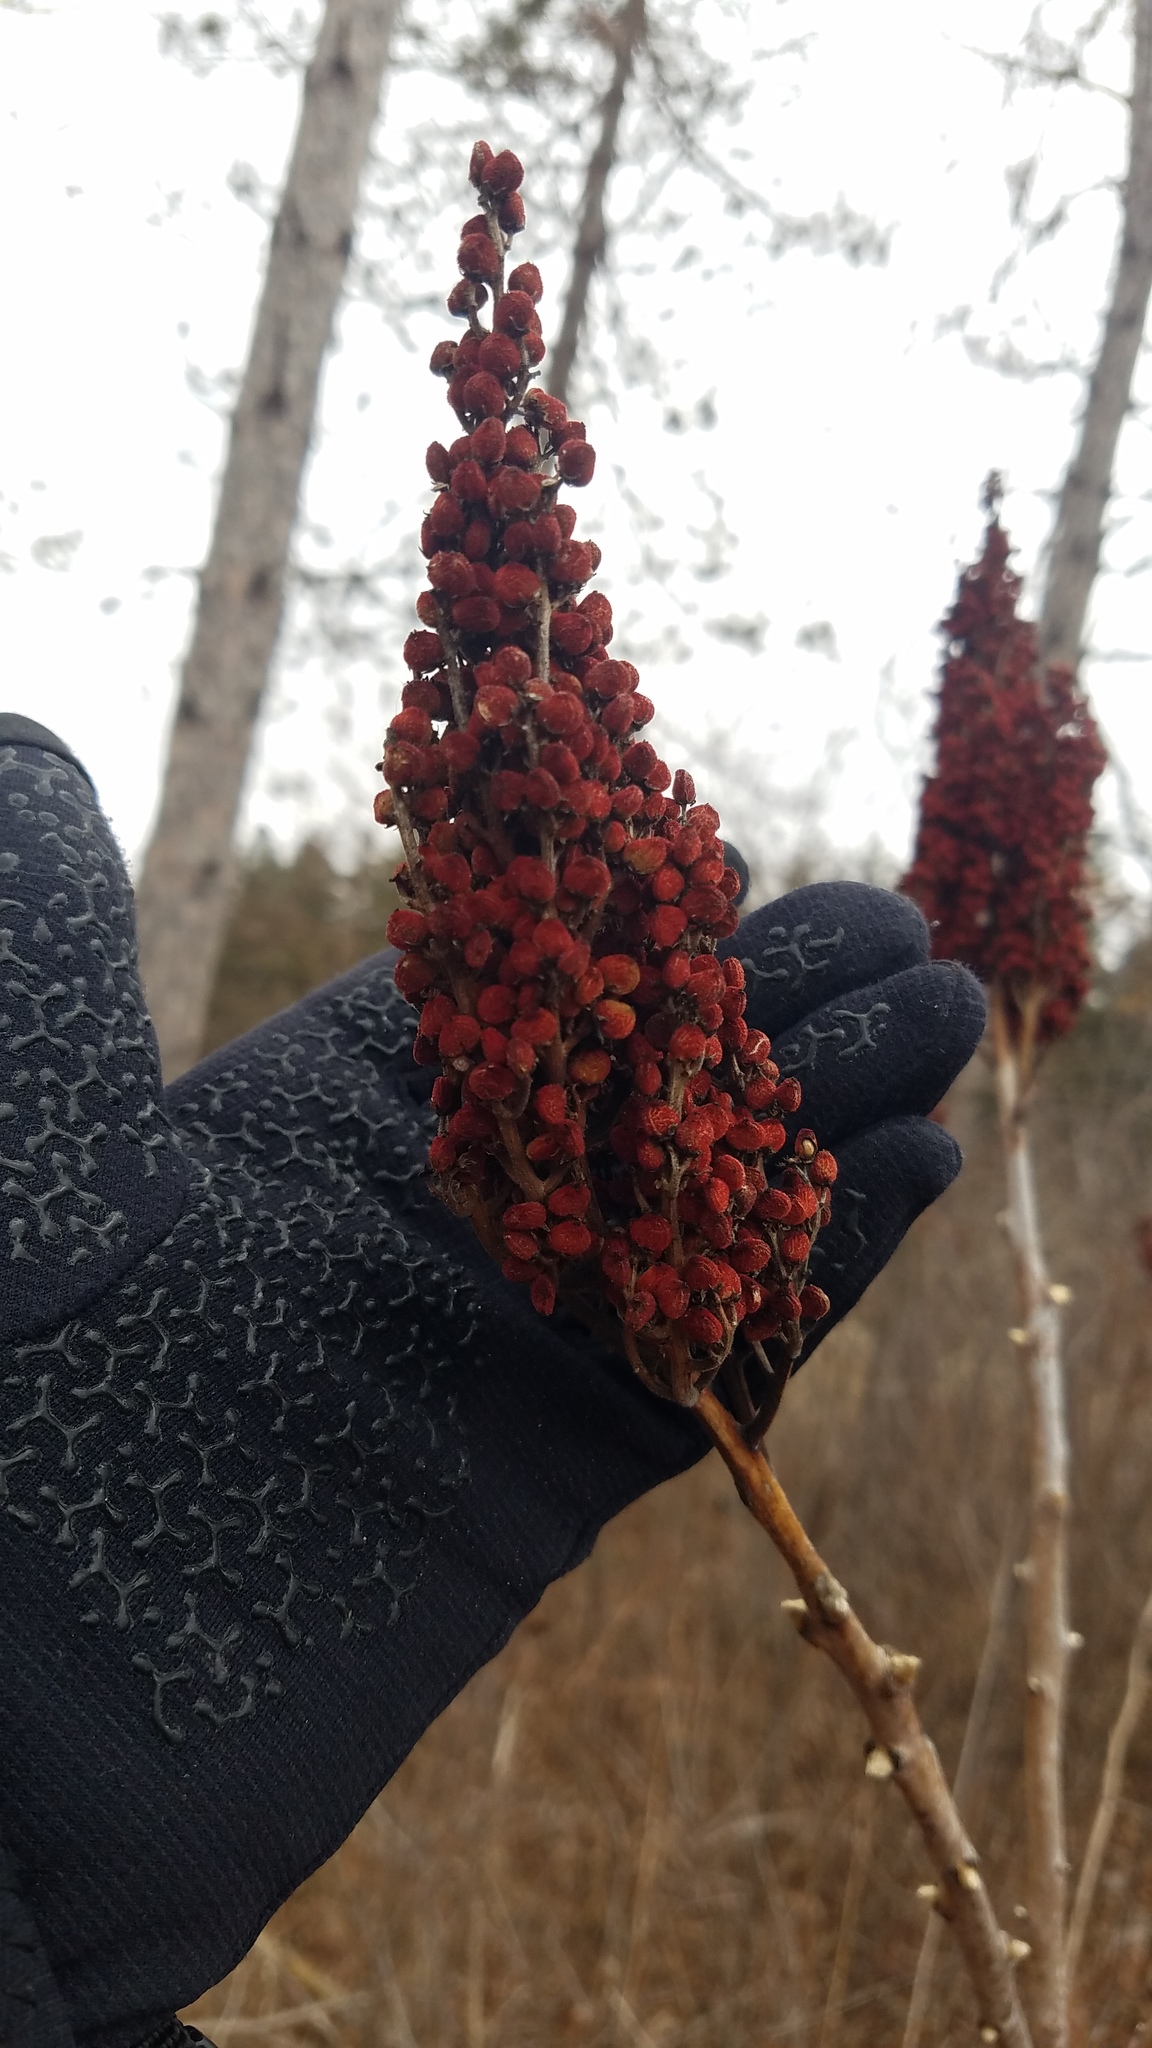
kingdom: Plantae
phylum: Tracheophyta
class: Magnoliopsida
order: Sapindales
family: Anacardiaceae
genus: Rhus
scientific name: Rhus glabra
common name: Scarlet sumac
